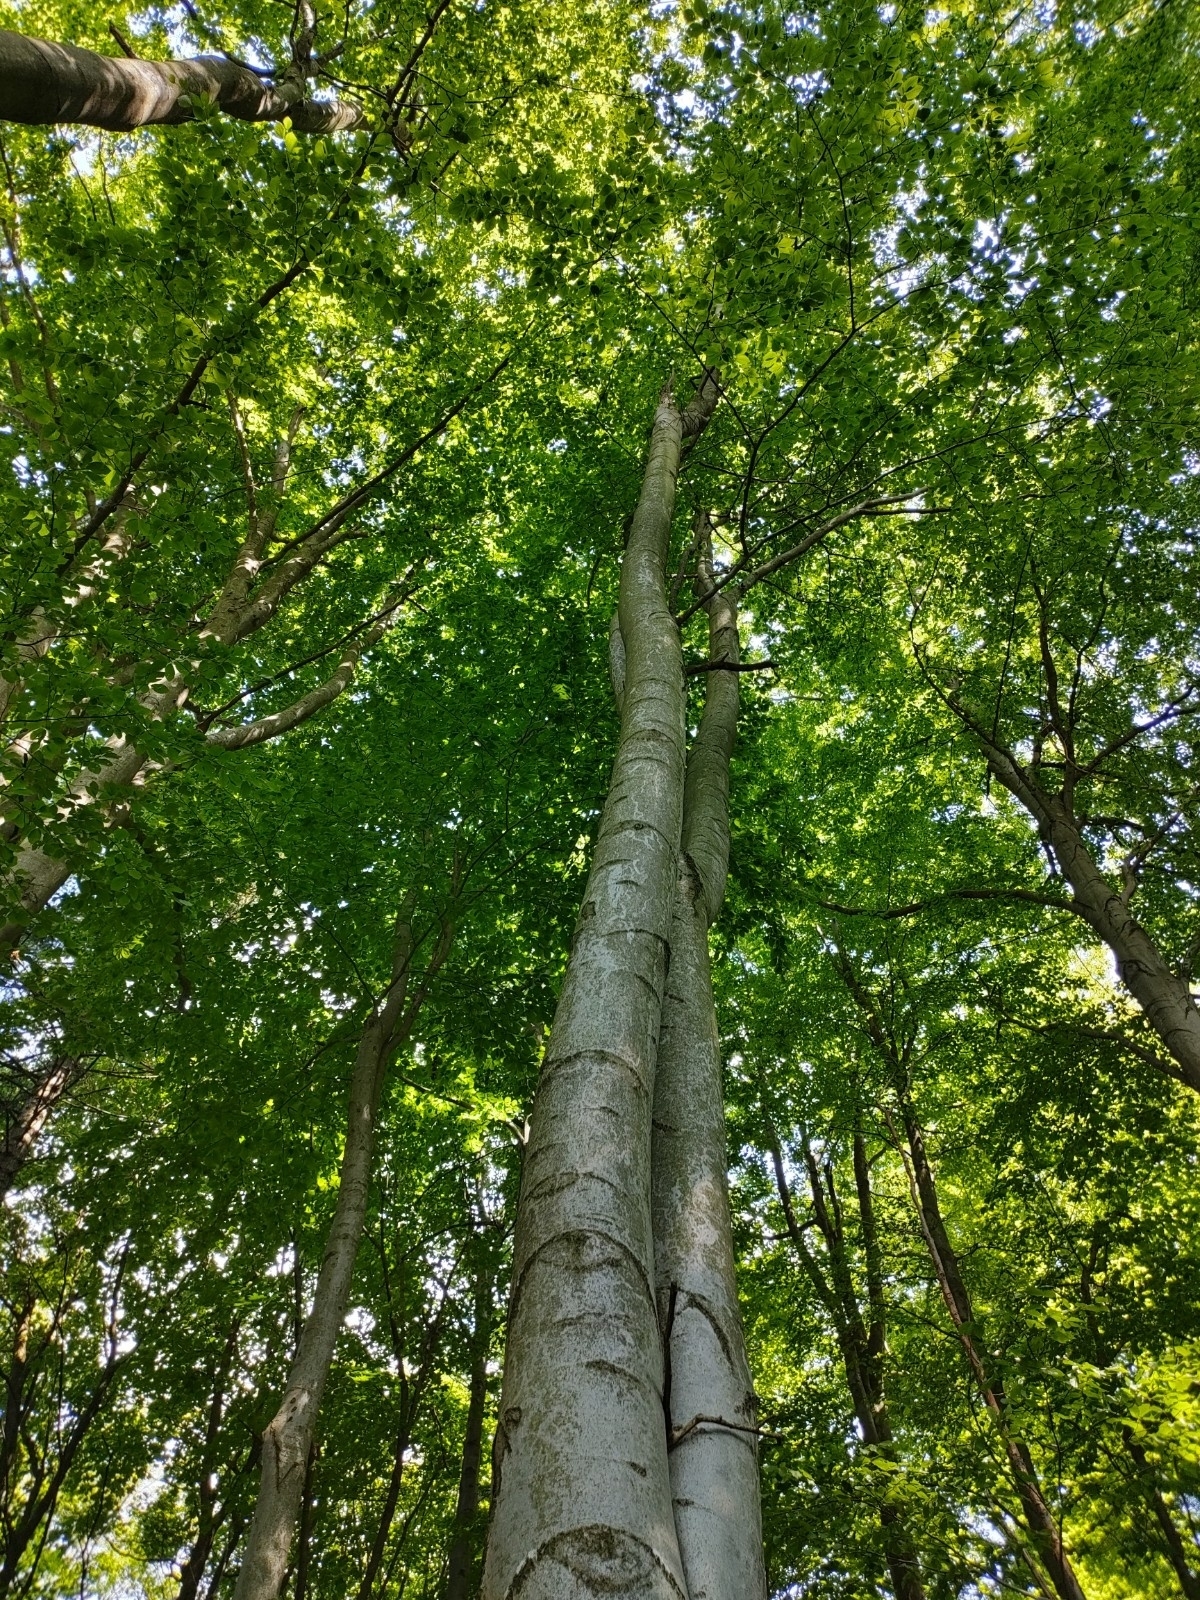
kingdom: Plantae
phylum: Tracheophyta
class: Magnoliopsida
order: Fagales
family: Fagaceae
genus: Fagus
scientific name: Fagus sylvatica
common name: Beech
